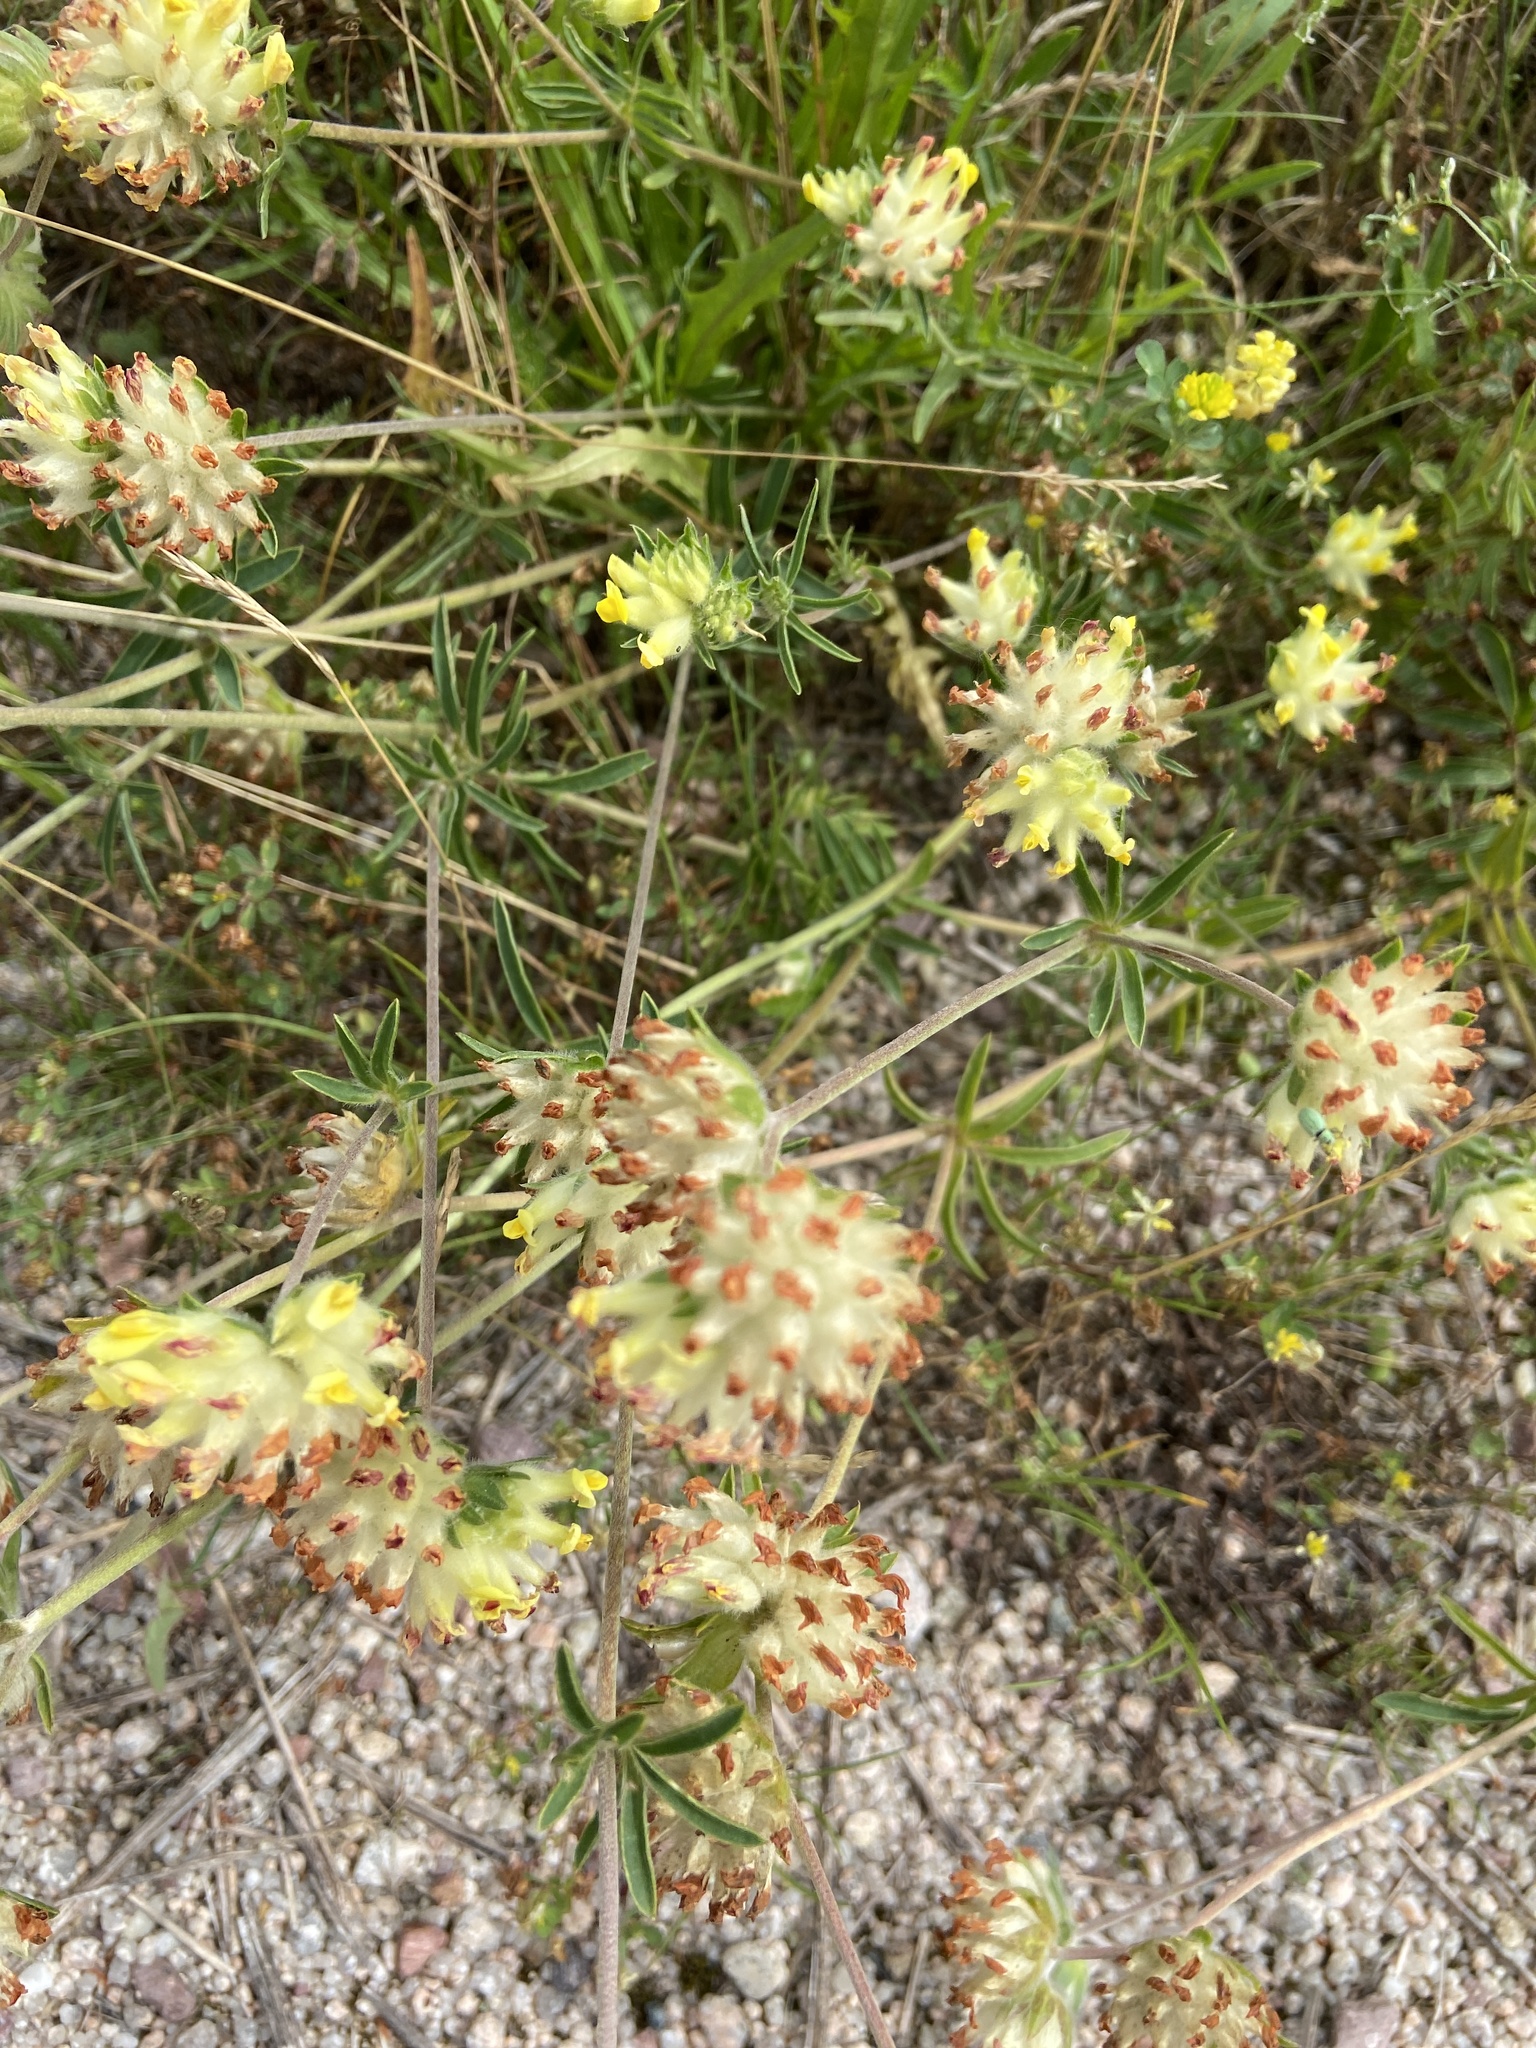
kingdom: Plantae
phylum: Tracheophyta
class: Magnoliopsida
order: Fabales
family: Fabaceae
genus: Anthyllis
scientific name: Anthyllis vulneraria
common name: Kidney vetch
